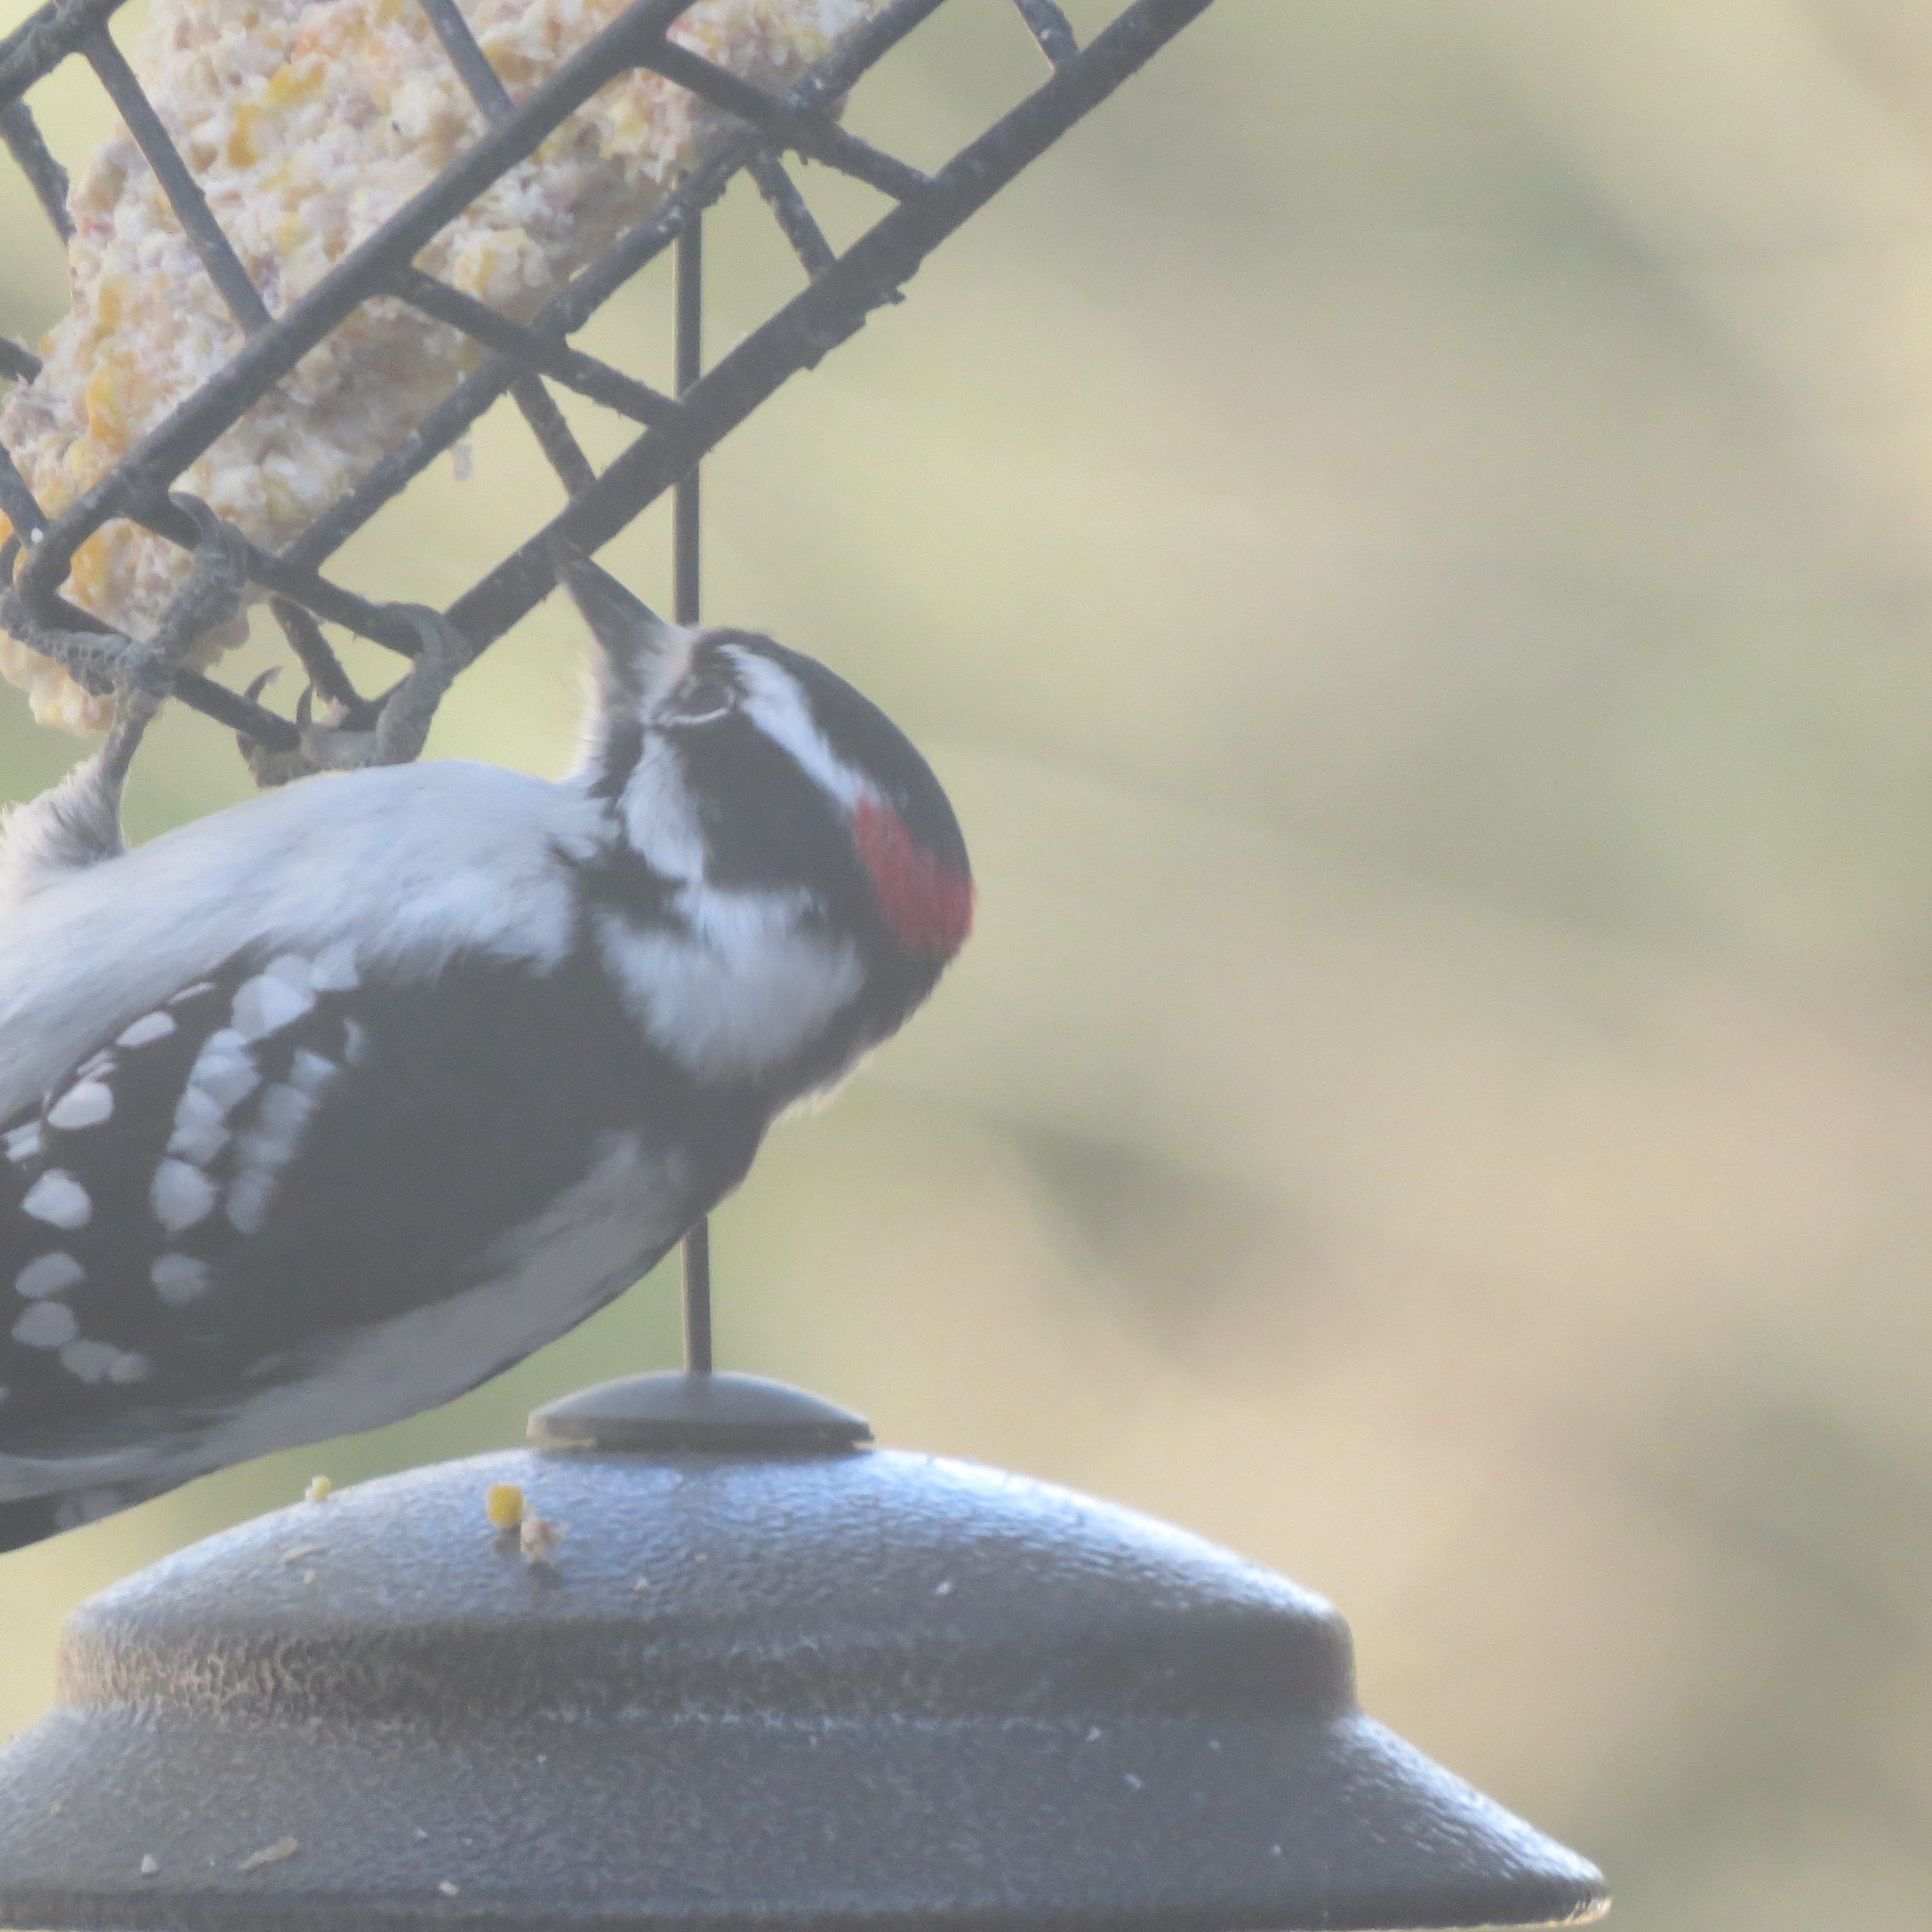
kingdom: Animalia
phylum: Chordata
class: Aves
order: Piciformes
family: Picidae
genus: Dryobates
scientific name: Dryobates pubescens
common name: Downy woodpecker
